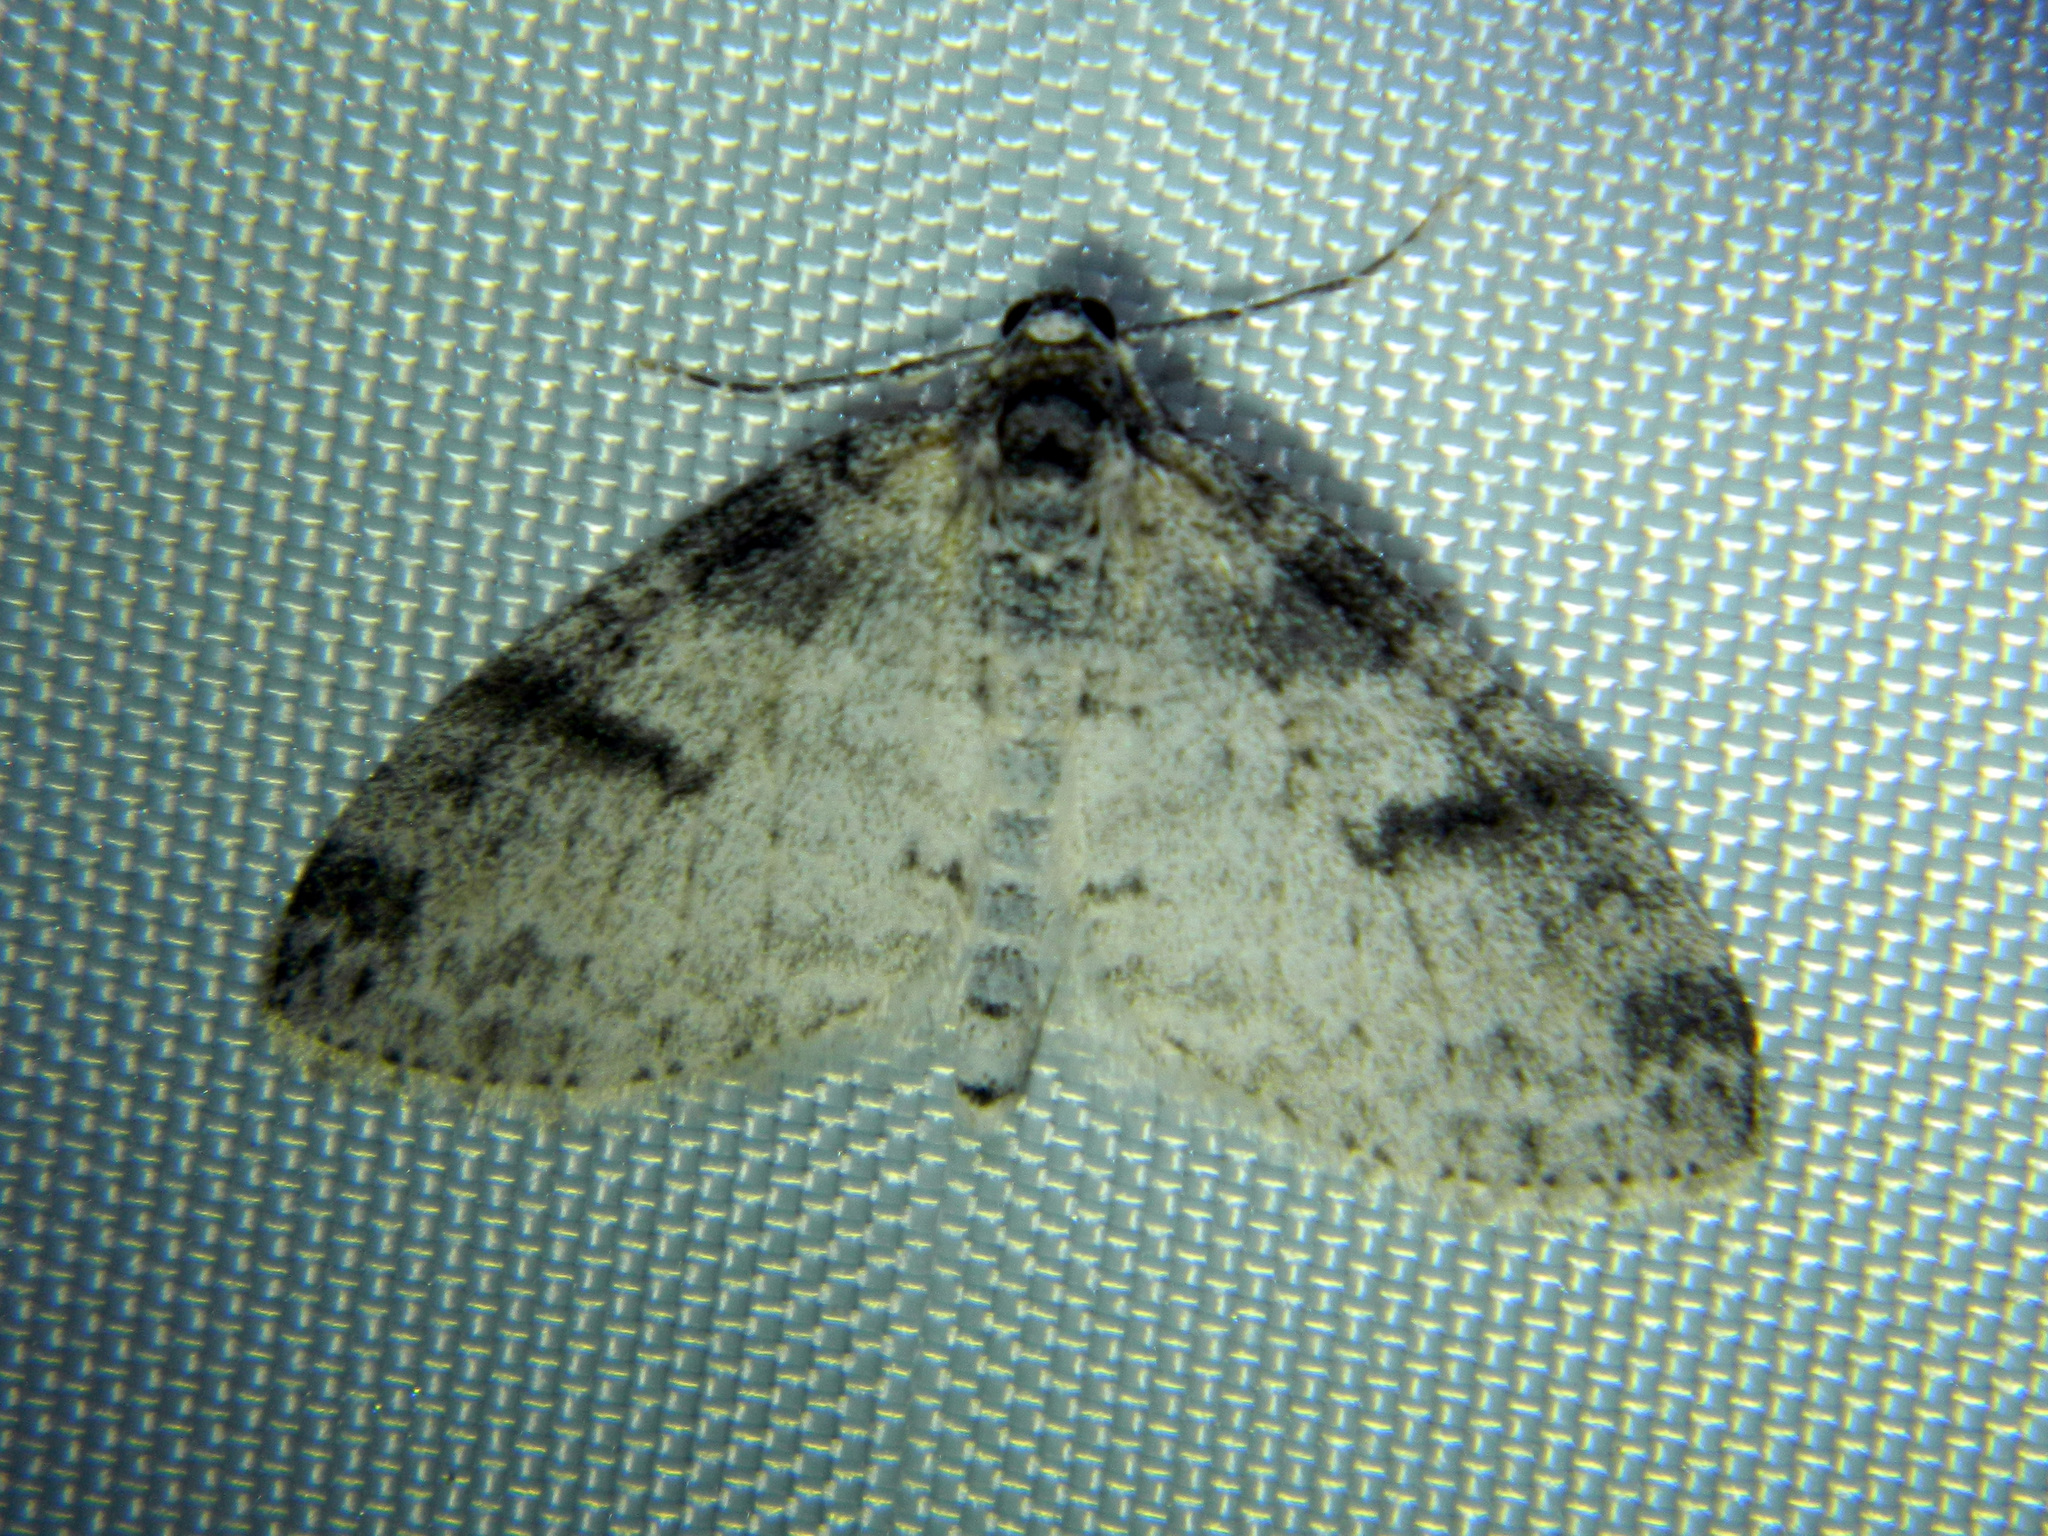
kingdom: Animalia
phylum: Arthropoda
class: Insecta
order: Lepidoptera
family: Geometridae
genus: Lobophora
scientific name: Lobophora nivigerata
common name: Powdered bigwing
